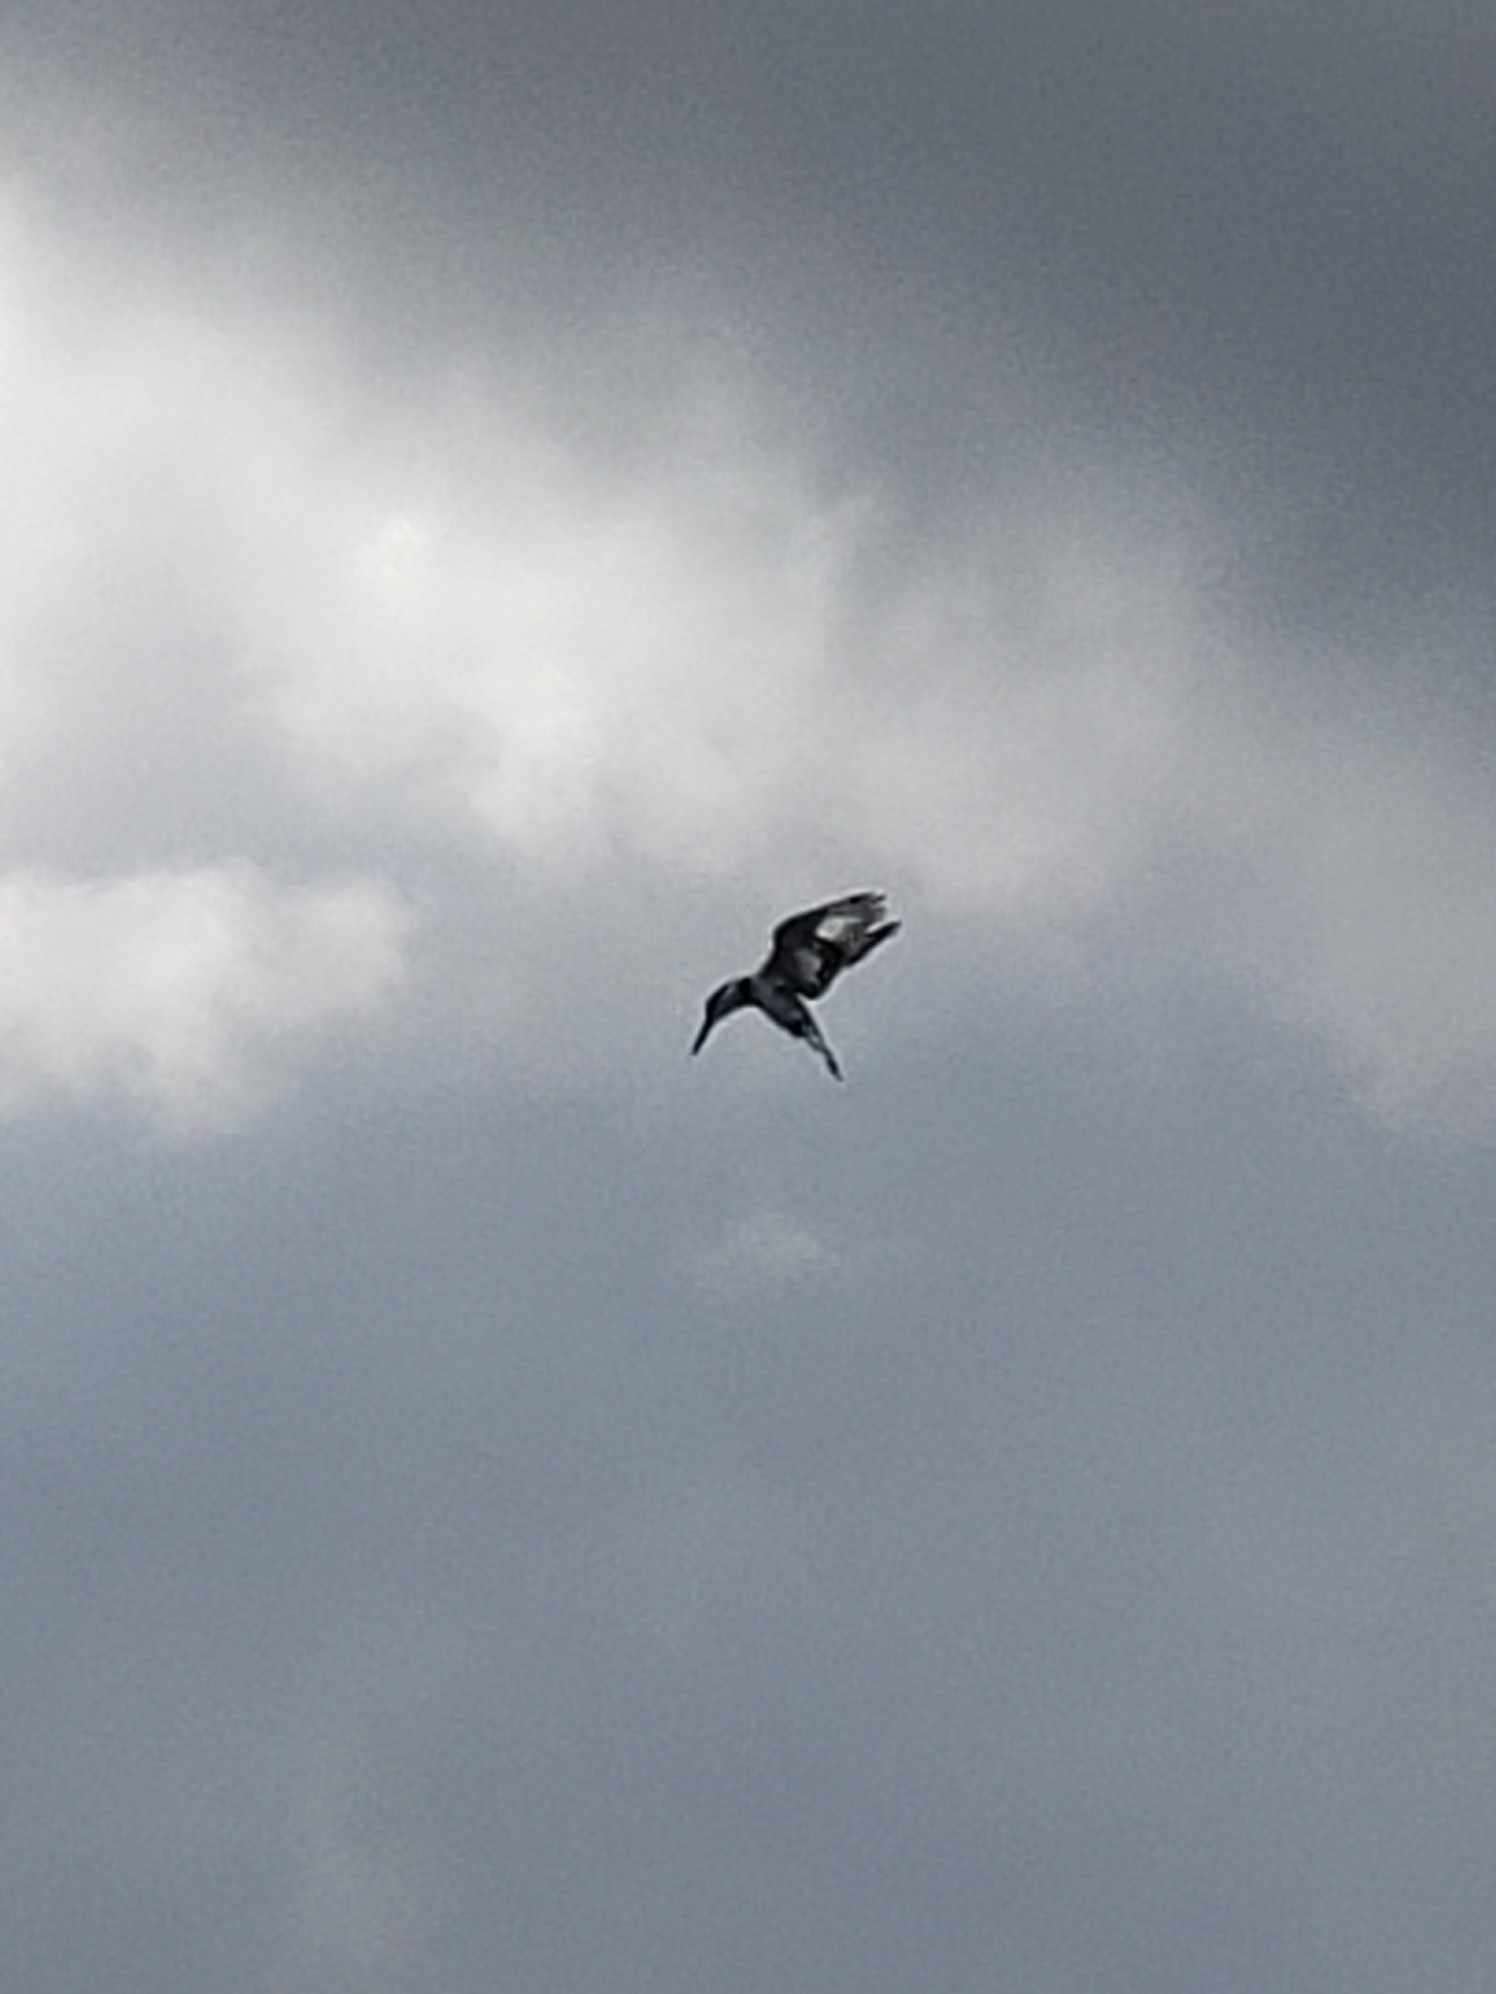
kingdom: Animalia
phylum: Chordata
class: Aves
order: Coraciiformes
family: Alcedinidae
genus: Ceryle
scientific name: Ceryle rudis
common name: Pied kingfisher
